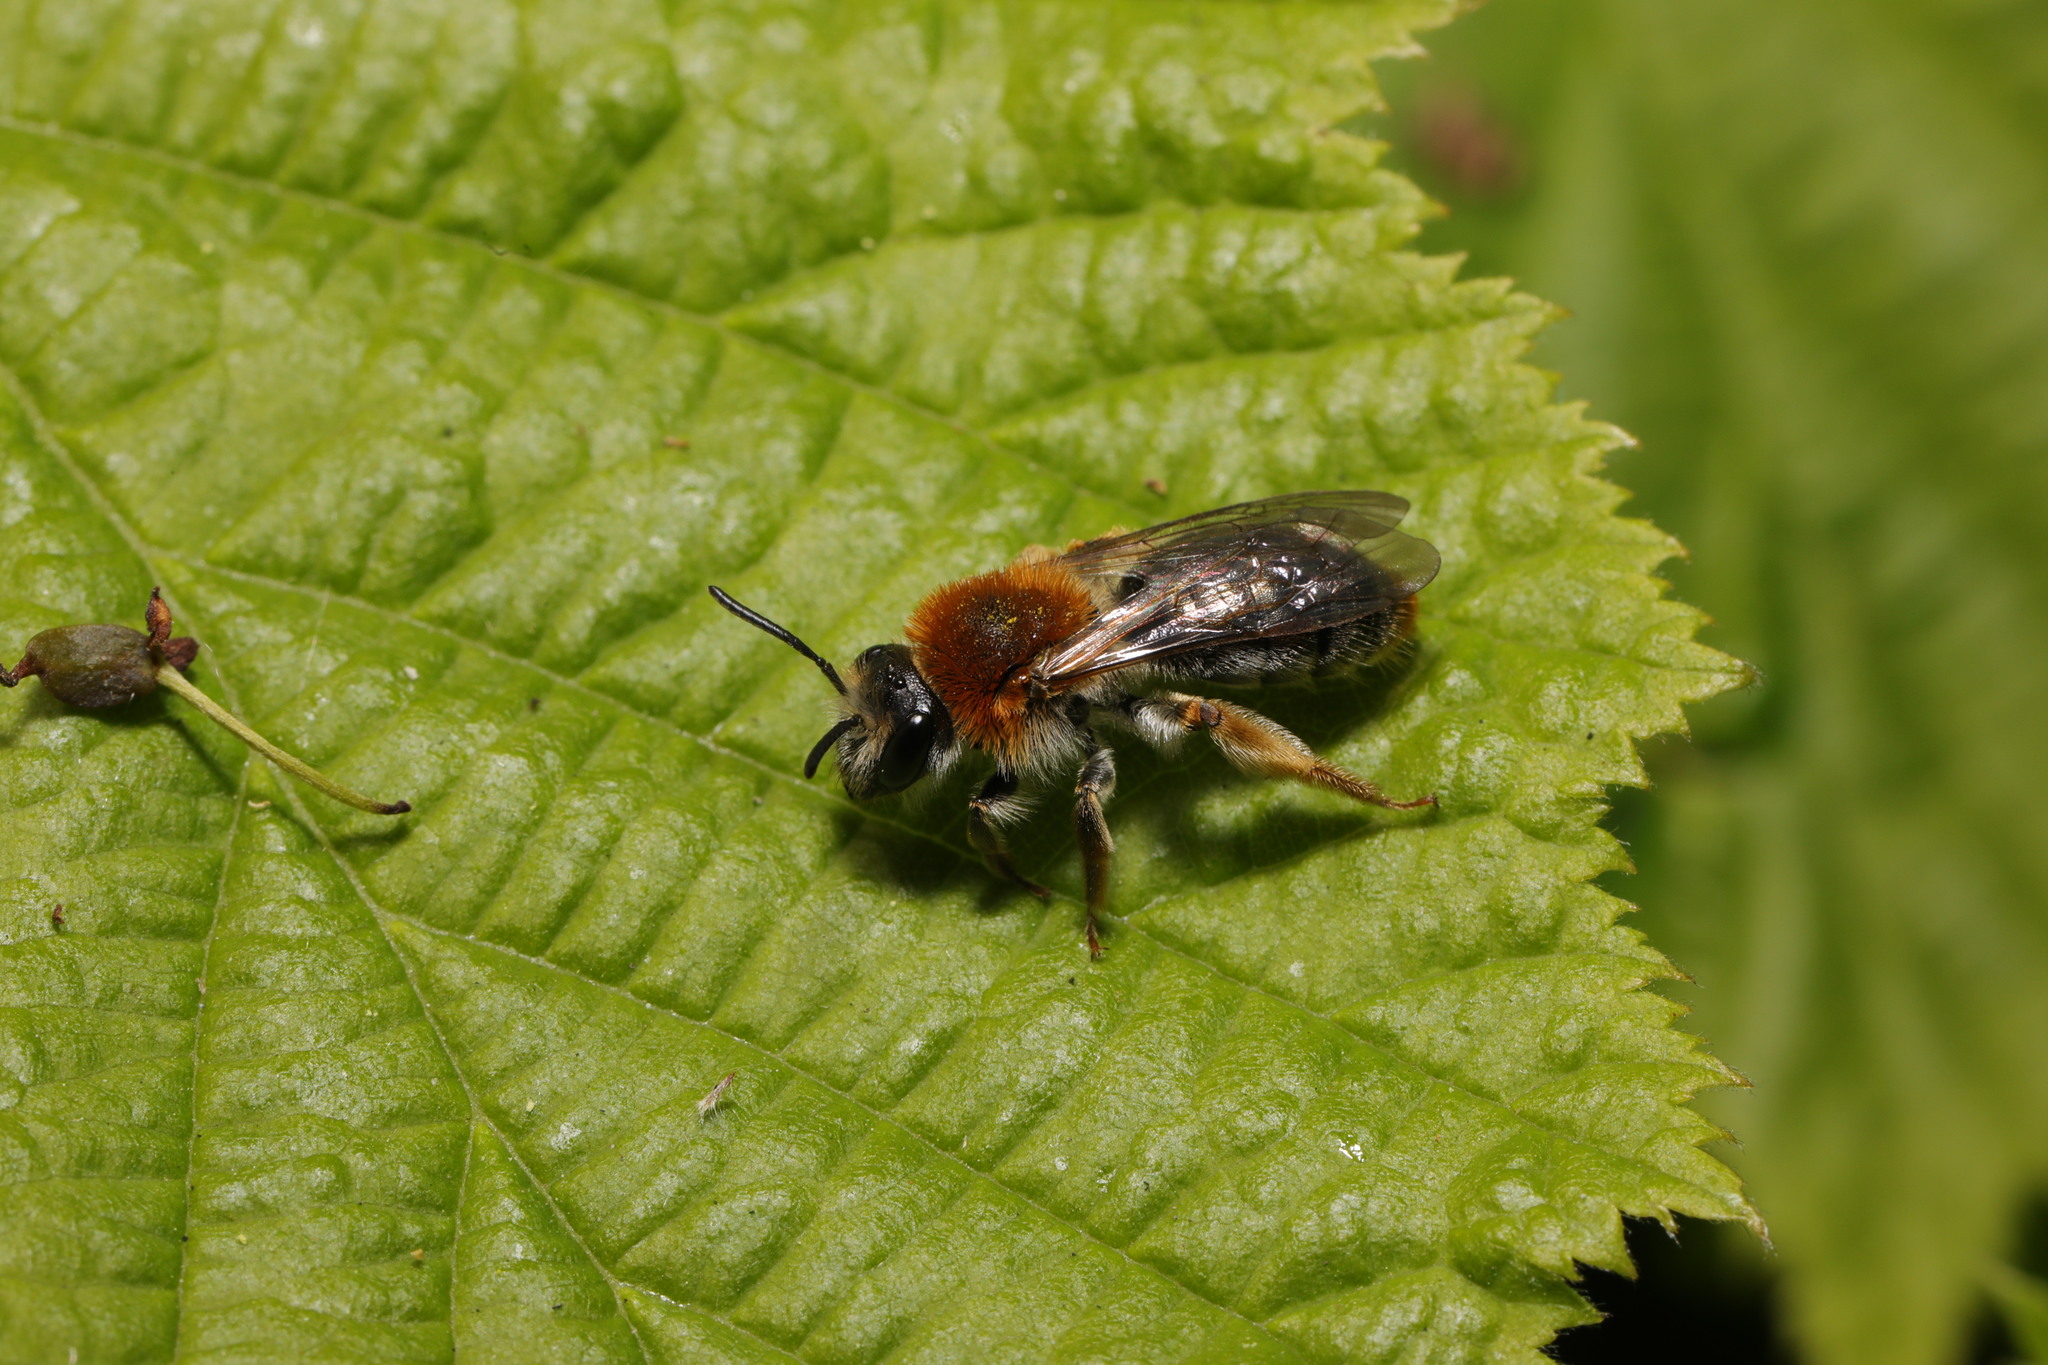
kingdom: Animalia
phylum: Arthropoda
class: Insecta
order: Hymenoptera
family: Andrenidae
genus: Andrena
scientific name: Andrena haemorrhoa
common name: Early mining bee
